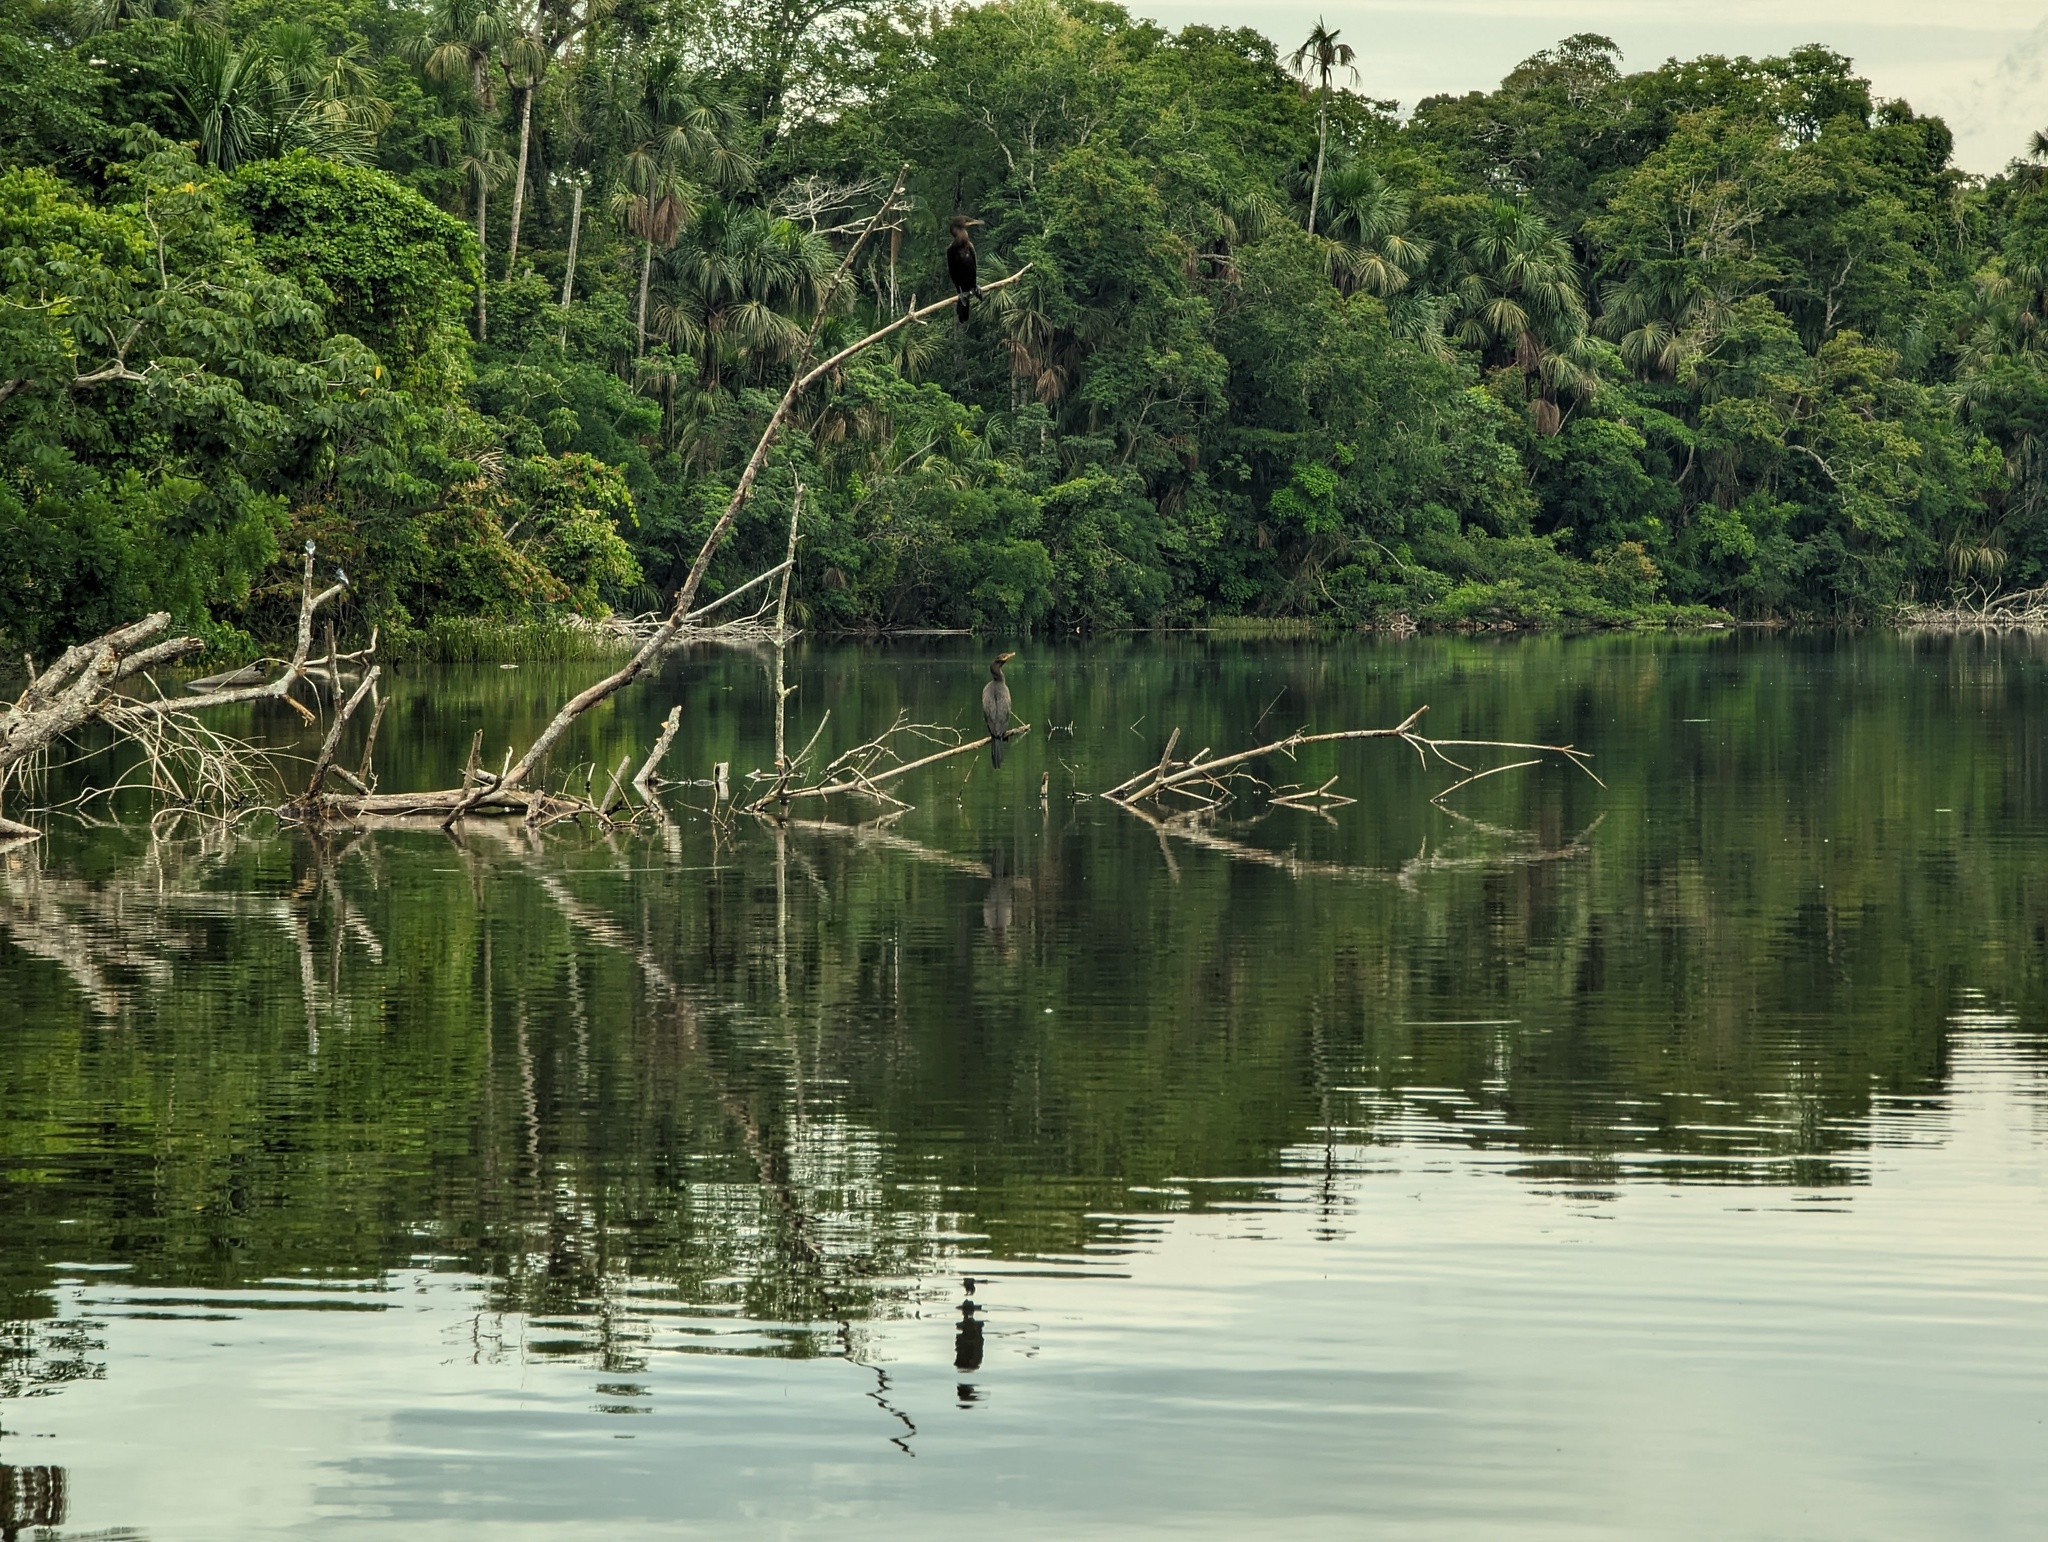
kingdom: Animalia
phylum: Chordata
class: Aves
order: Suliformes
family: Phalacrocoracidae
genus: Phalacrocorax
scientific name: Phalacrocorax brasilianus
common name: Neotropic cormorant
